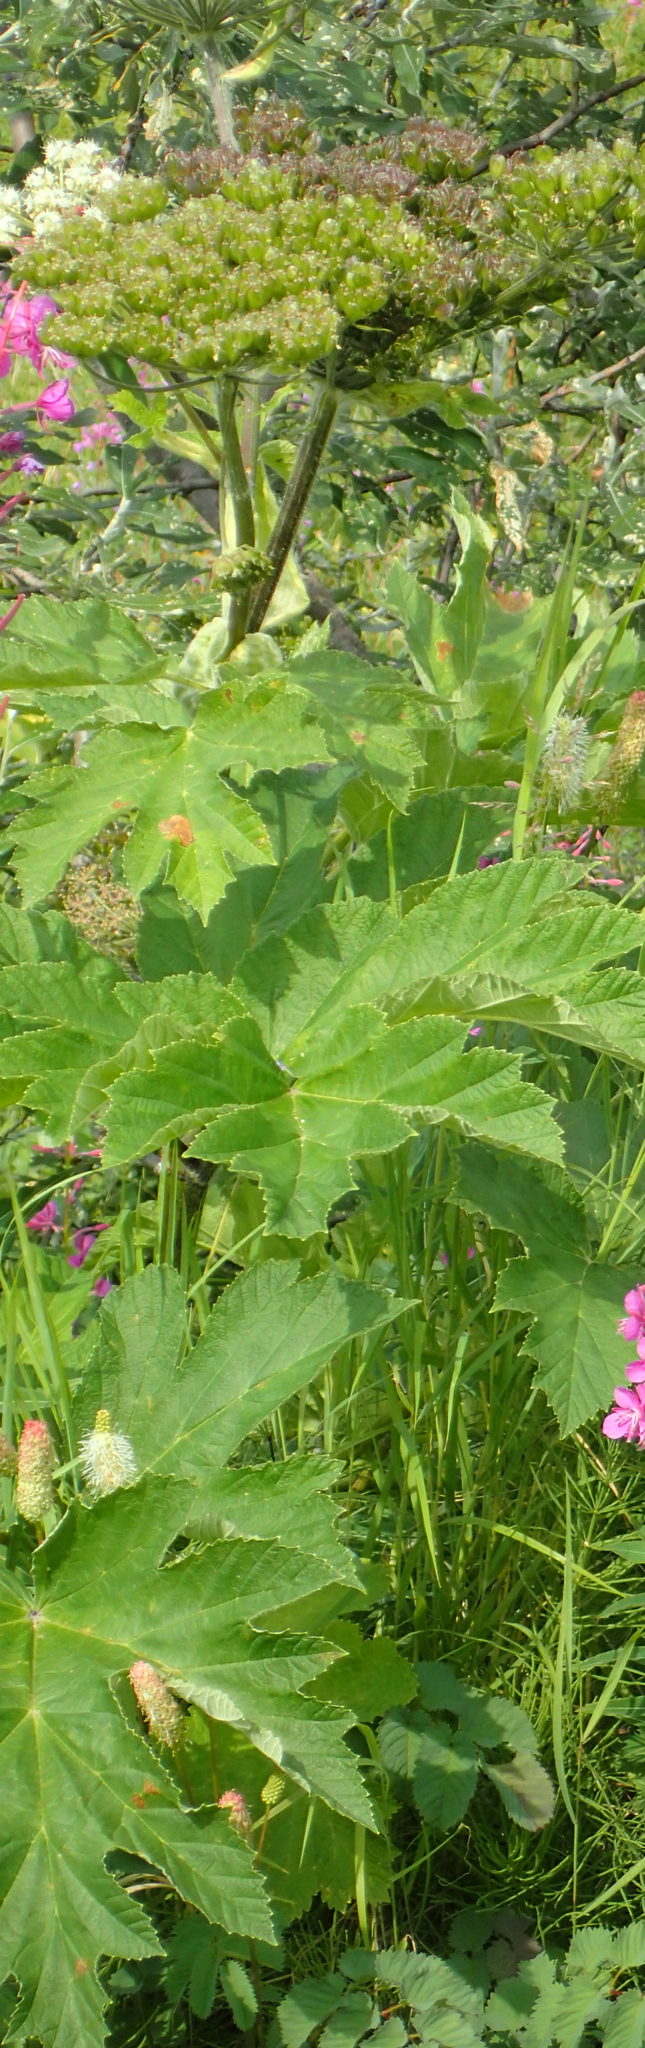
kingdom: Plantae
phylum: Tracheophyta
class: Magnoliopsida
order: Apiales
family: Apiaceae
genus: Heracleum
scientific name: Heracleum maximum
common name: American cow parsnip
